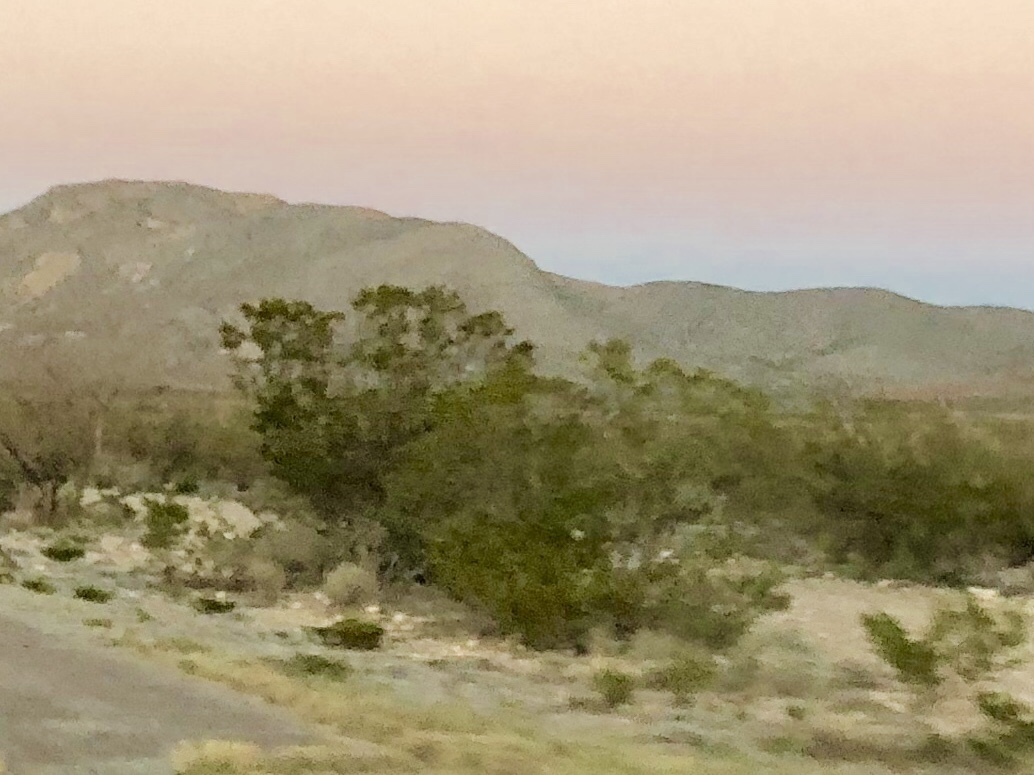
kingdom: Plantae
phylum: Tracheophyta
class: Magnoliopsida
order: Zygophyllales
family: Zygophyllaceae
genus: Larrea
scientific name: Larrea tridentata
